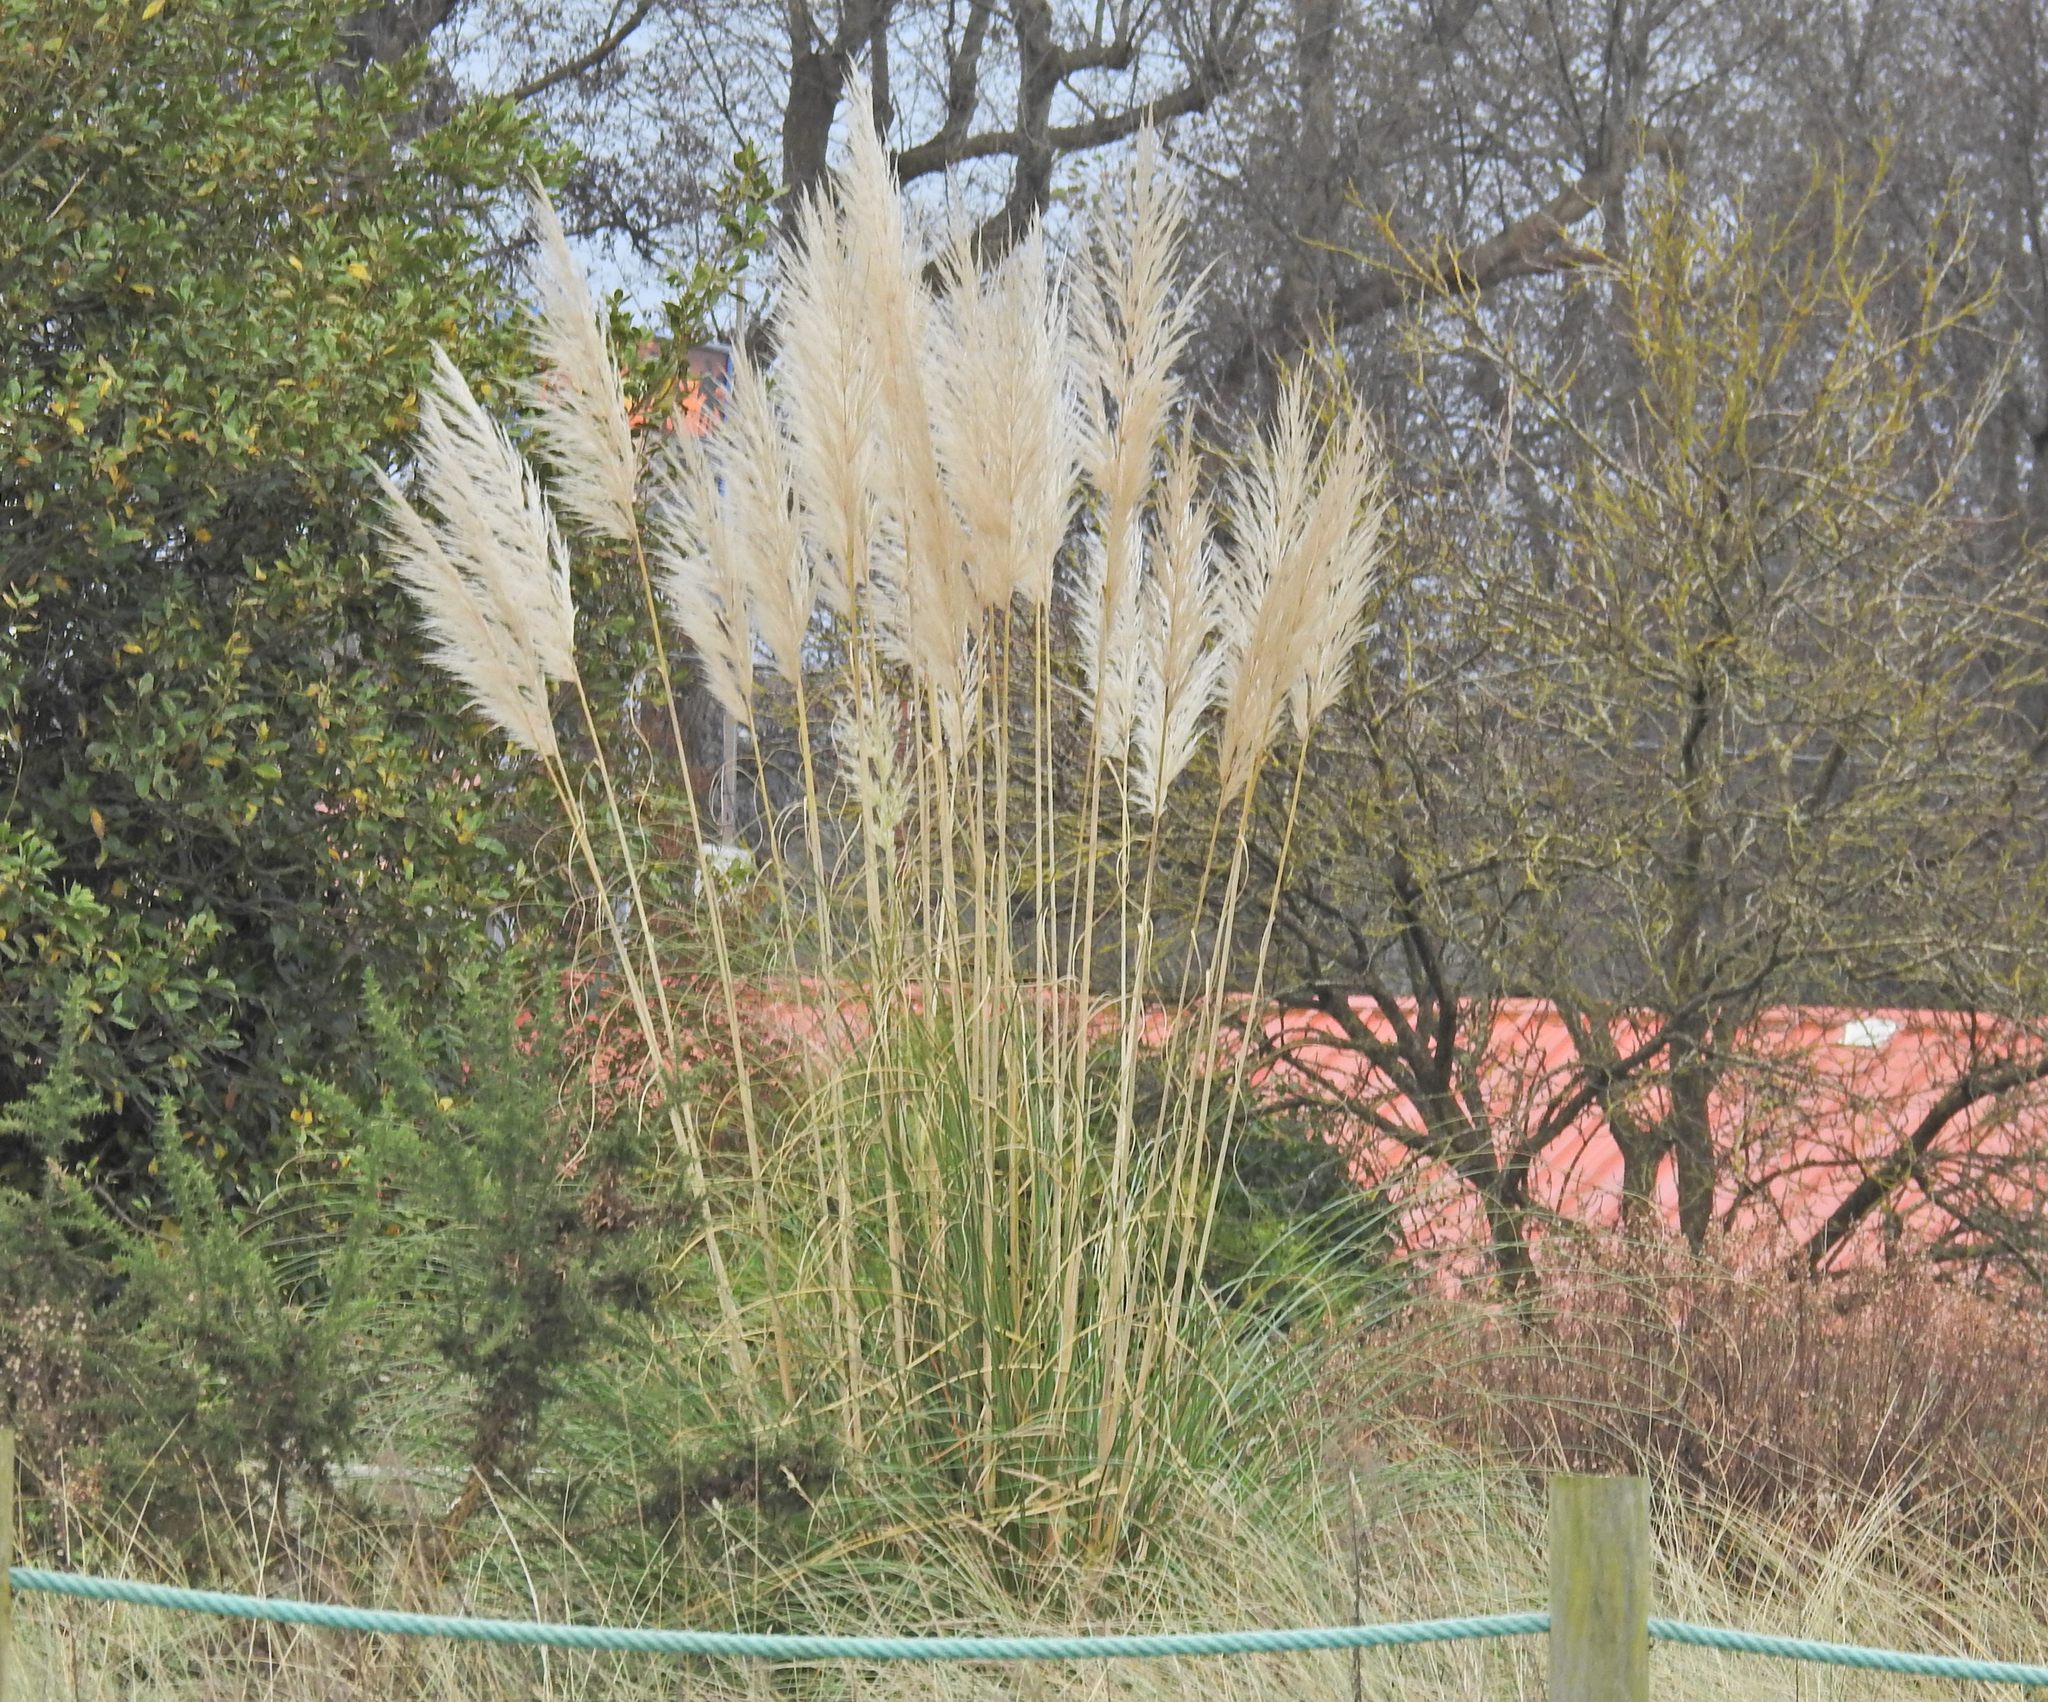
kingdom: Plantae
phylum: Tracheophyta
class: Liliopsida
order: Poales
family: Poaceae
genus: Cortaderia
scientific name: Cortaderia selloana
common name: Uruguayan pampas grass
